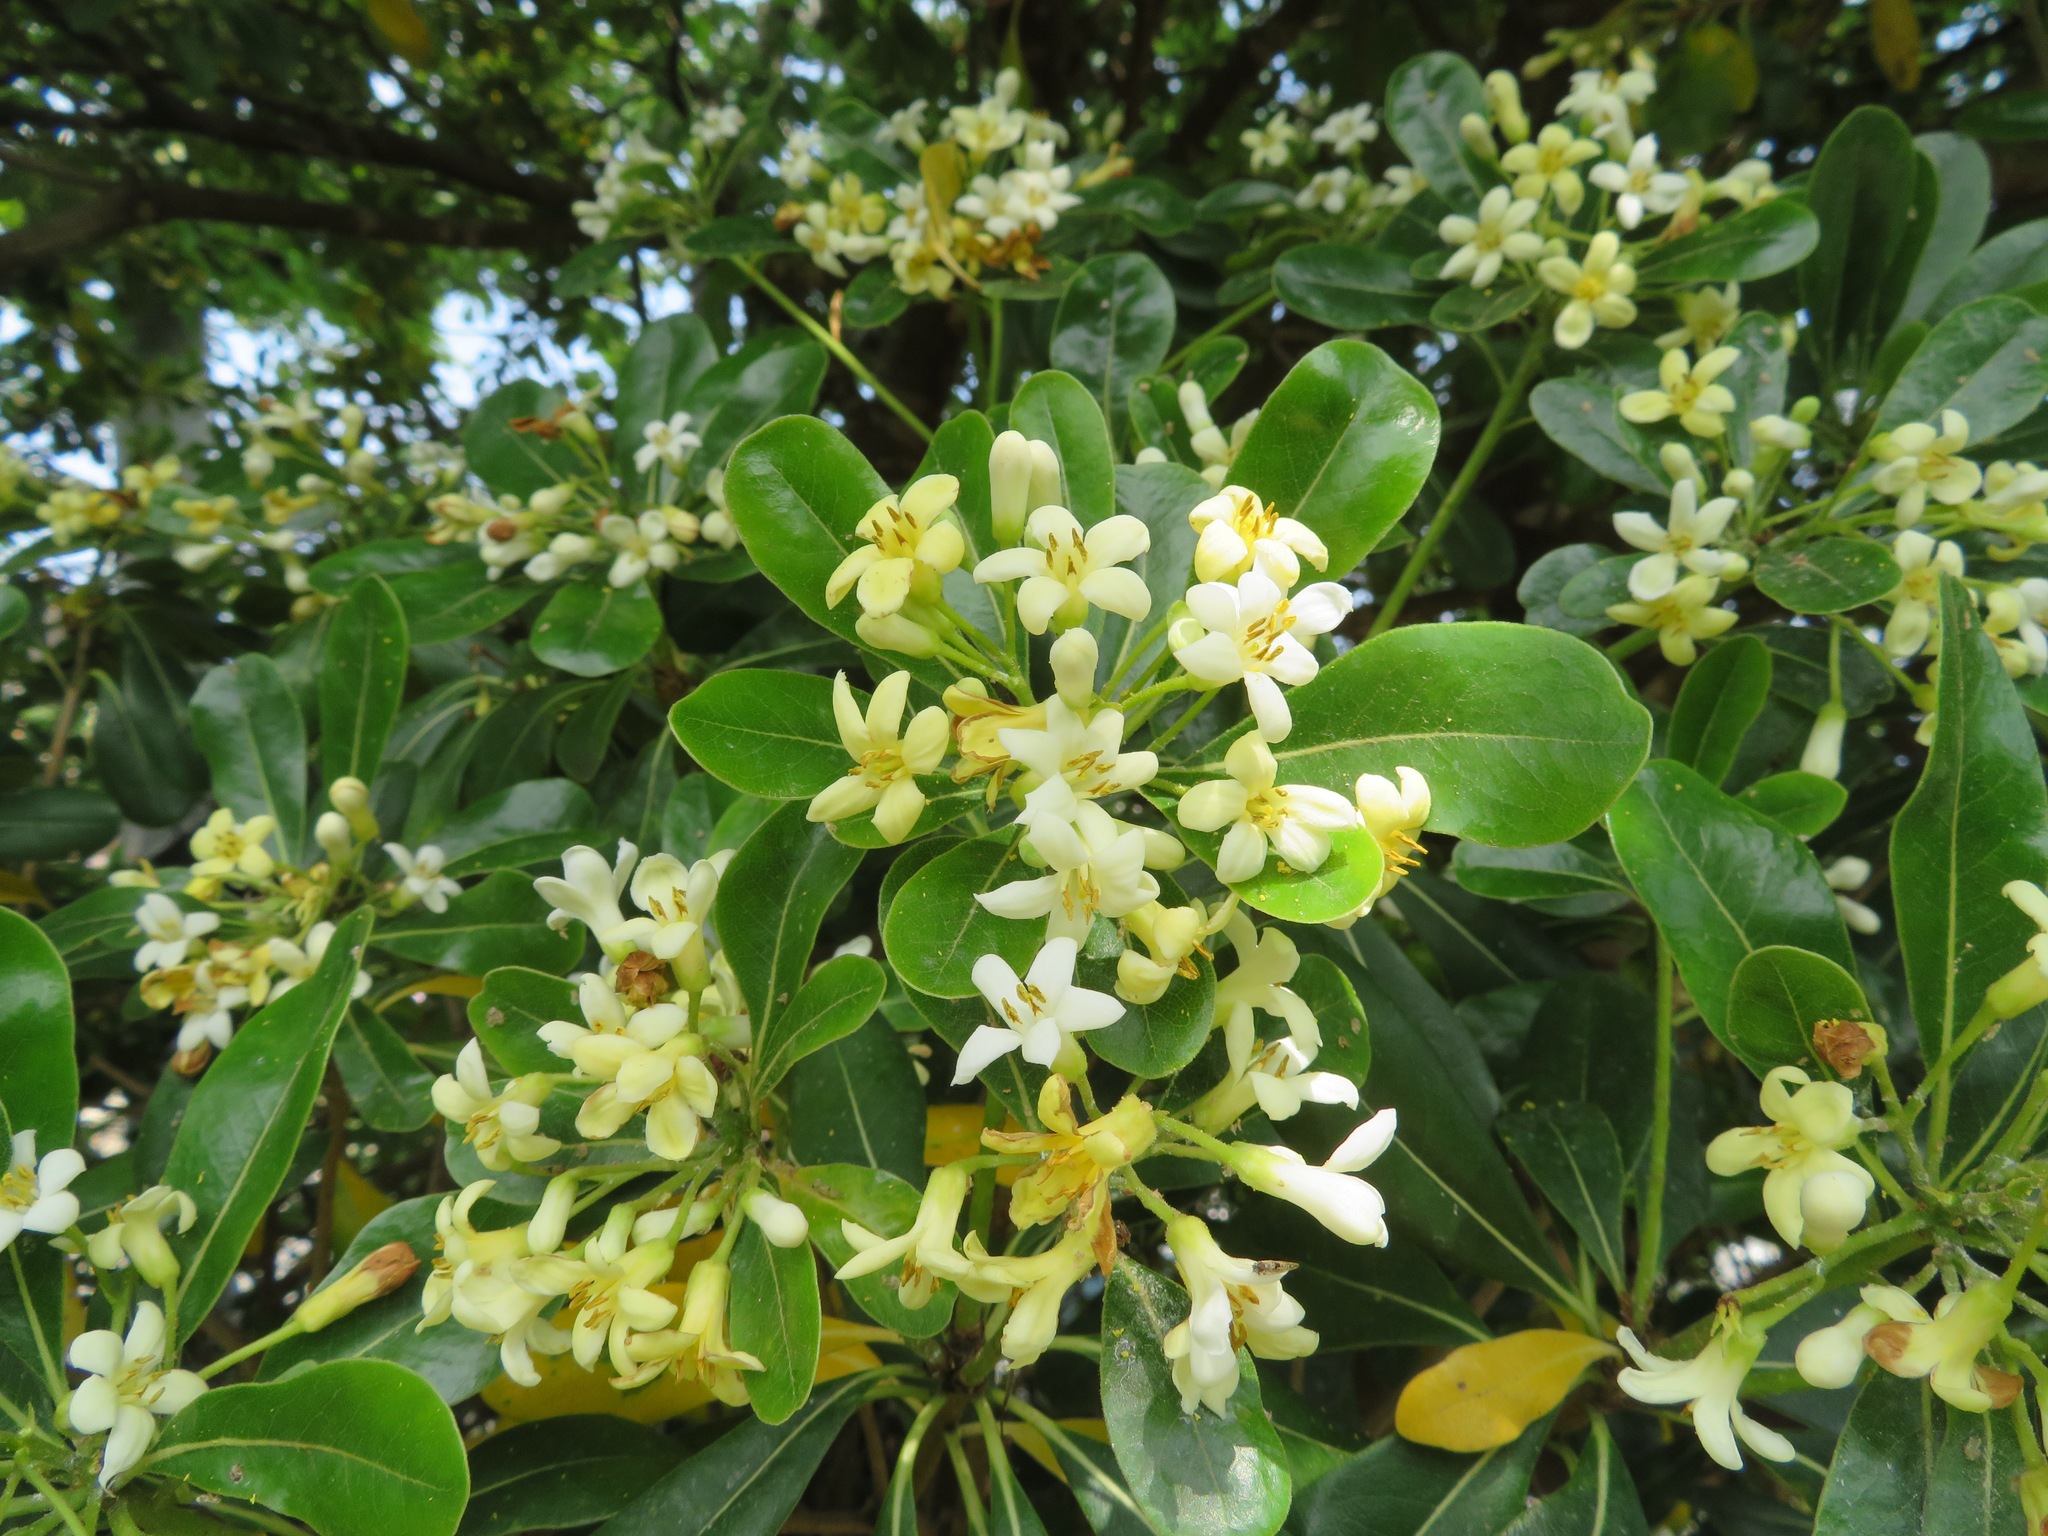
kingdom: Plantae
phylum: Tracheophyta
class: Magnoliopsida
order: Apiales
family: Pittosporaceae
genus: Pittosporum
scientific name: Pittosporum tobira
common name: Japanese cheesewood
